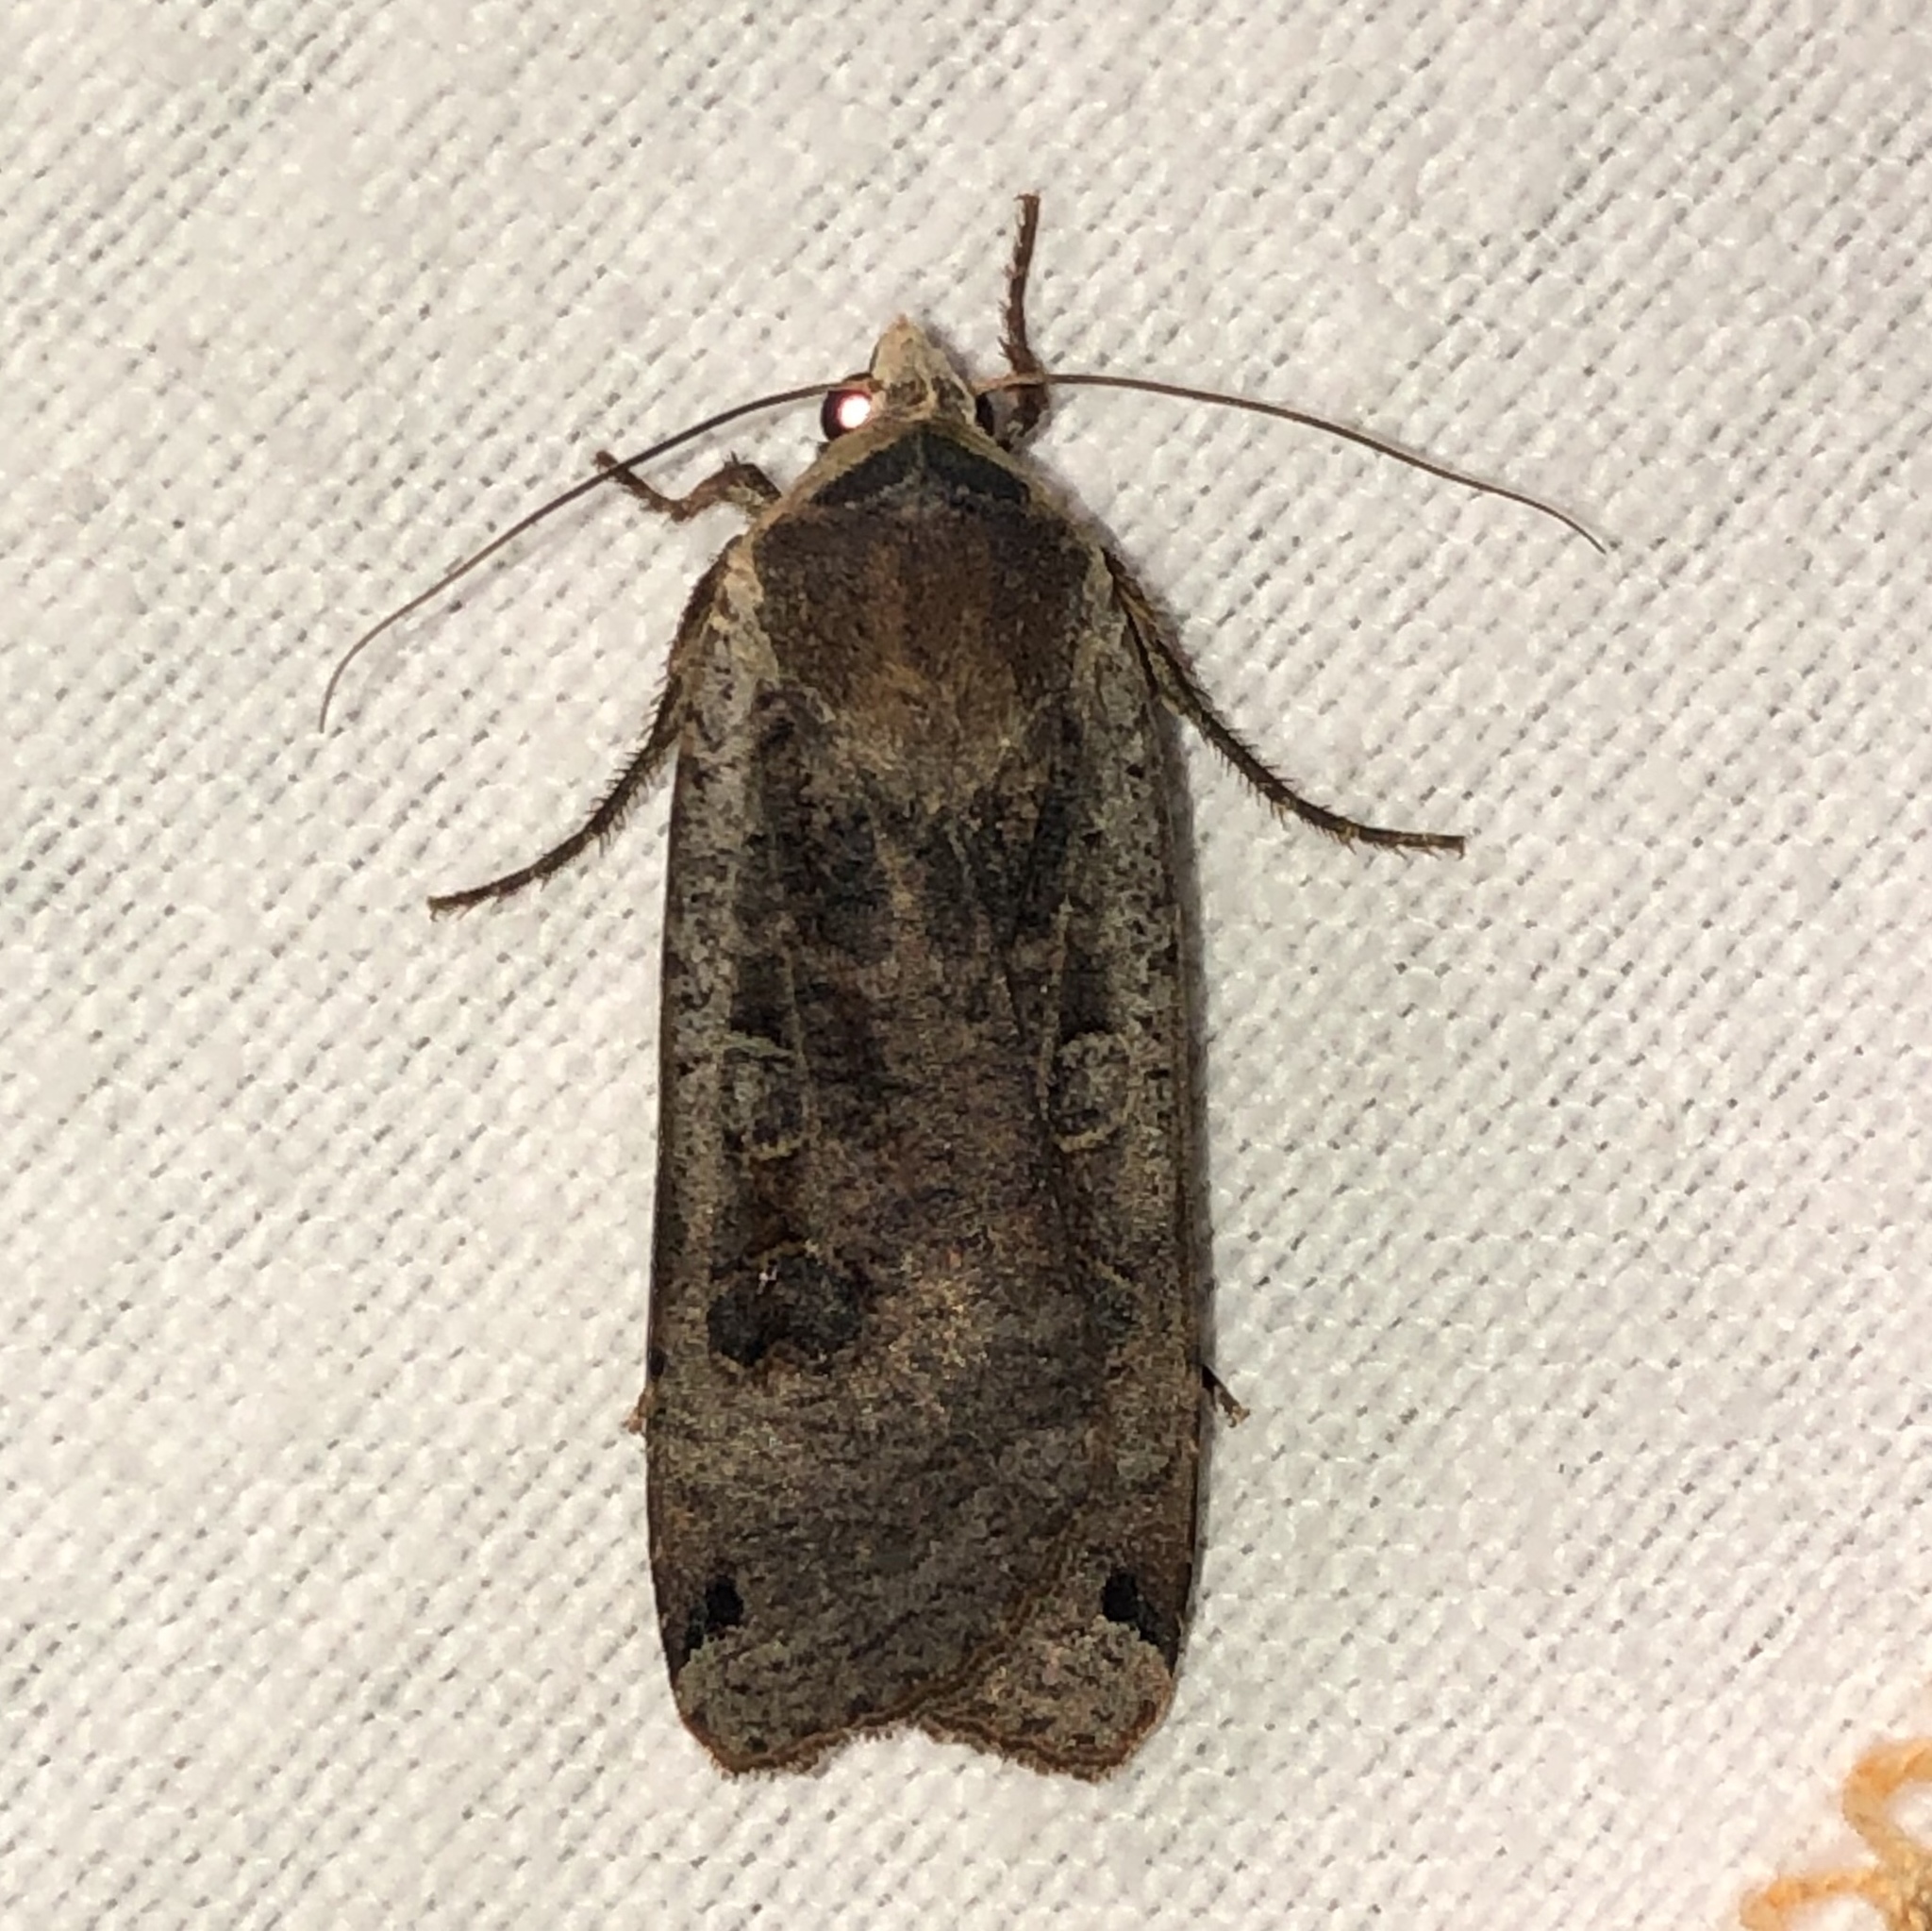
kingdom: Animalia
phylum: Arthropoda
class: Insecta
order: Lepidoptera
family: Noctuidae
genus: Noctua
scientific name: Noctua pronuba
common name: Large yellow underwing
